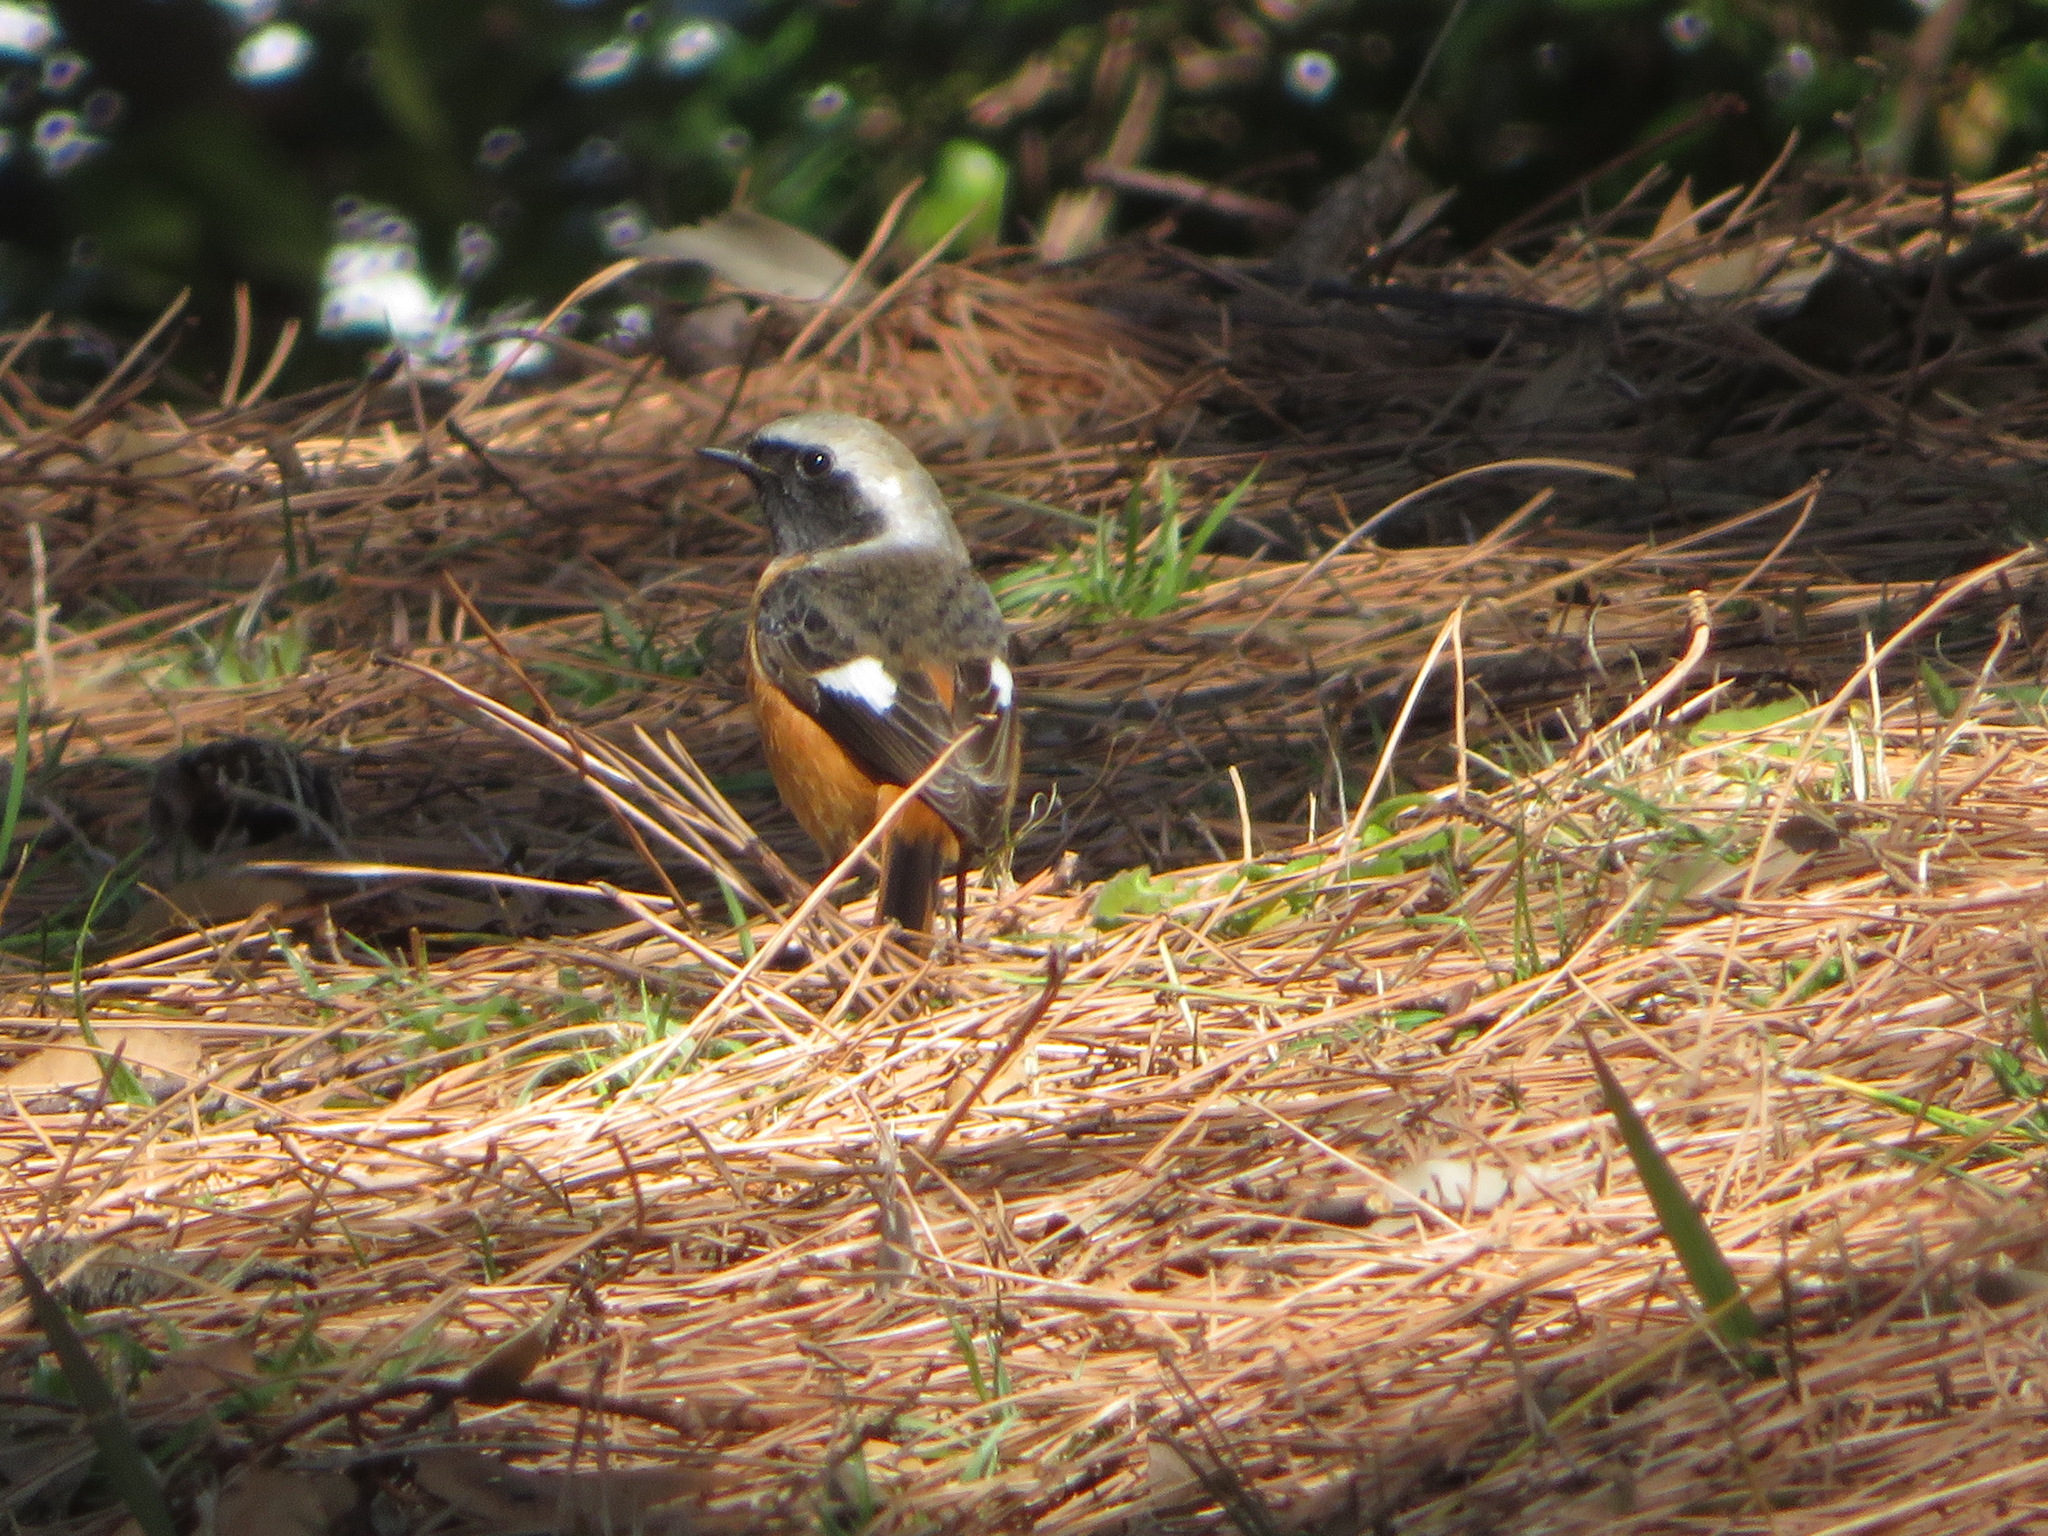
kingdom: Animalia
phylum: Chordata
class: Aves
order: Passeriformes
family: Muscicapidae
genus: Phoenicurus
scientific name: Phoenicurus auroreus
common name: Daurian redstart
